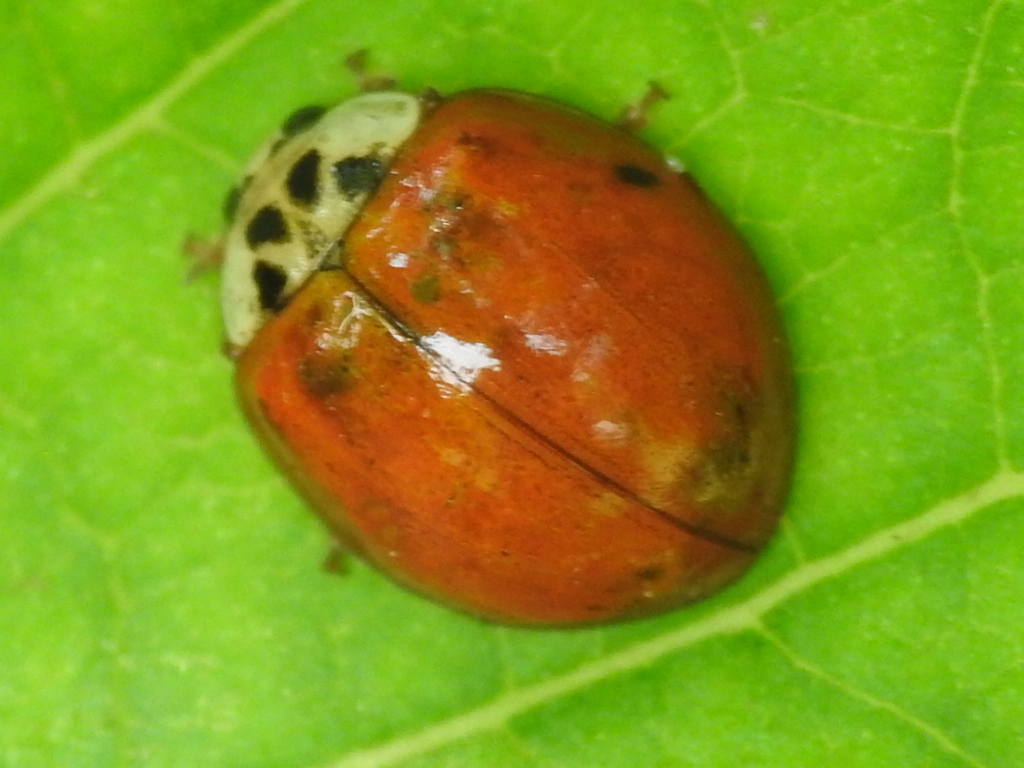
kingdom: Animalia
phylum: Arthropoda
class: Insecta
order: Coleoptera
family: Coccinellidae
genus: Harmonia
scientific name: Harmonia axyridis
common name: Harlequin ladybird
